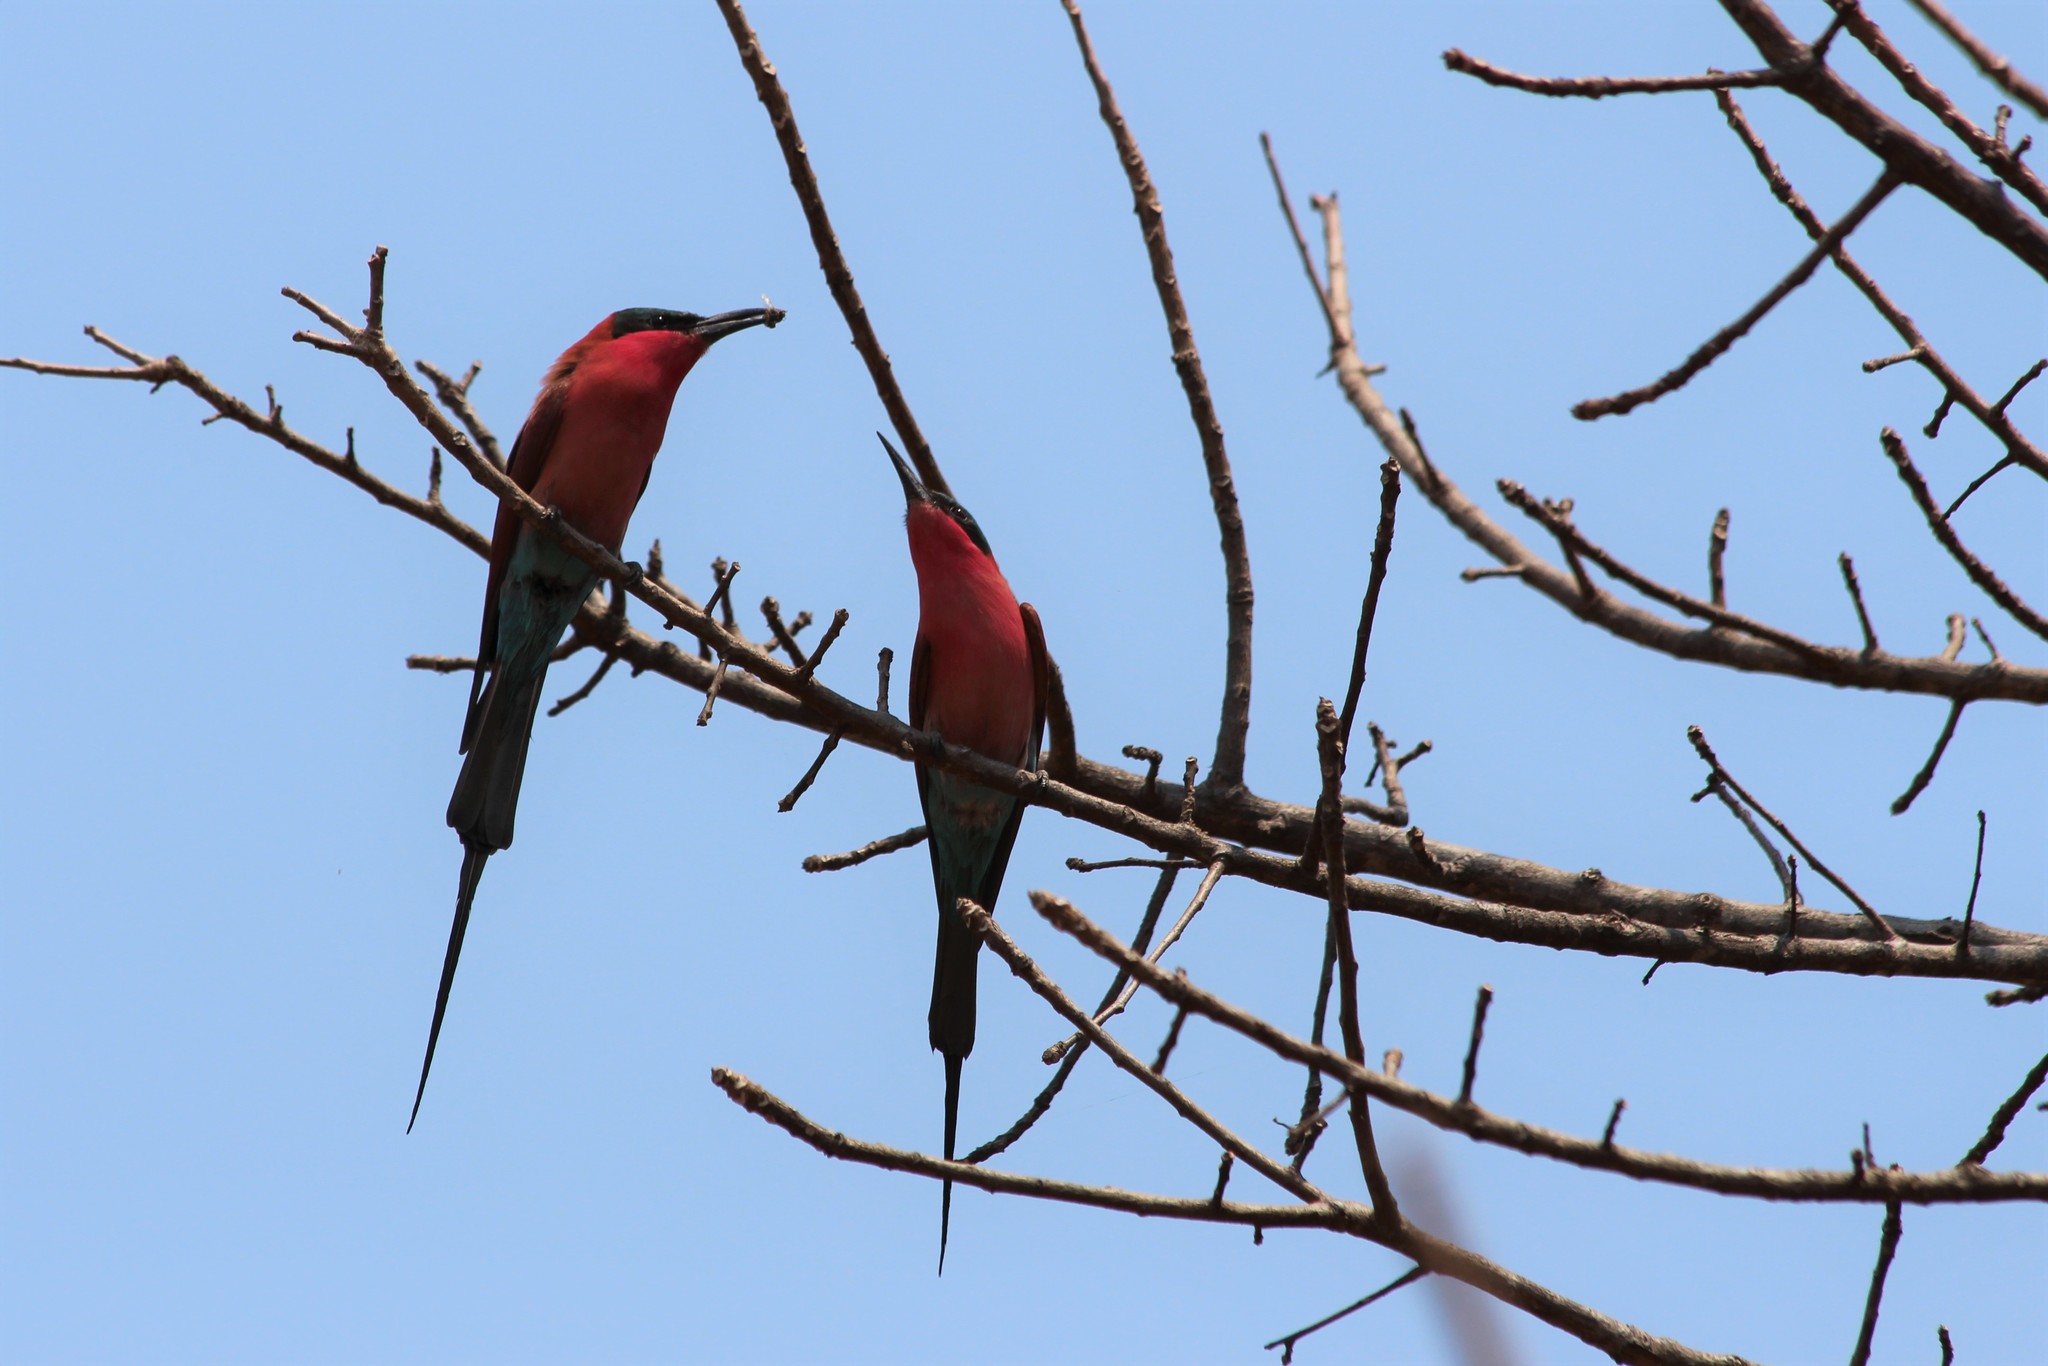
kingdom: Animalia
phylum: Chordata
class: Aves
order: Coraciiformes
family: Meropidae
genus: Merops
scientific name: Merops nubicoides
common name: Southern carmine bee-eater
